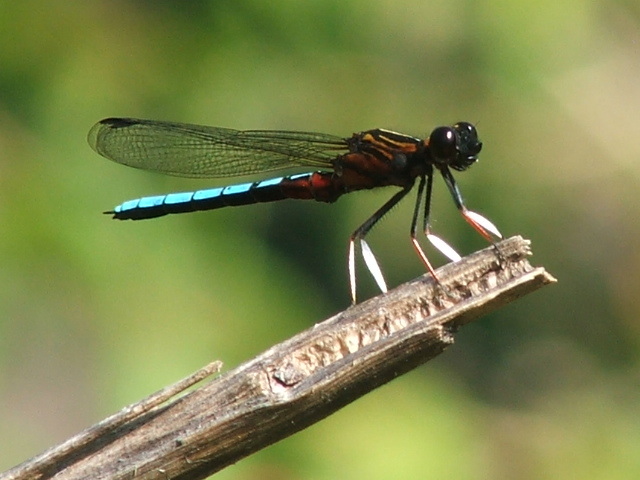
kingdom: Animalia
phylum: Arthropoda
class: Insecta
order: Odonata
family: Chlorocyphidae
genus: Platycypha
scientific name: Platycypha caligata
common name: Dancing jewel
